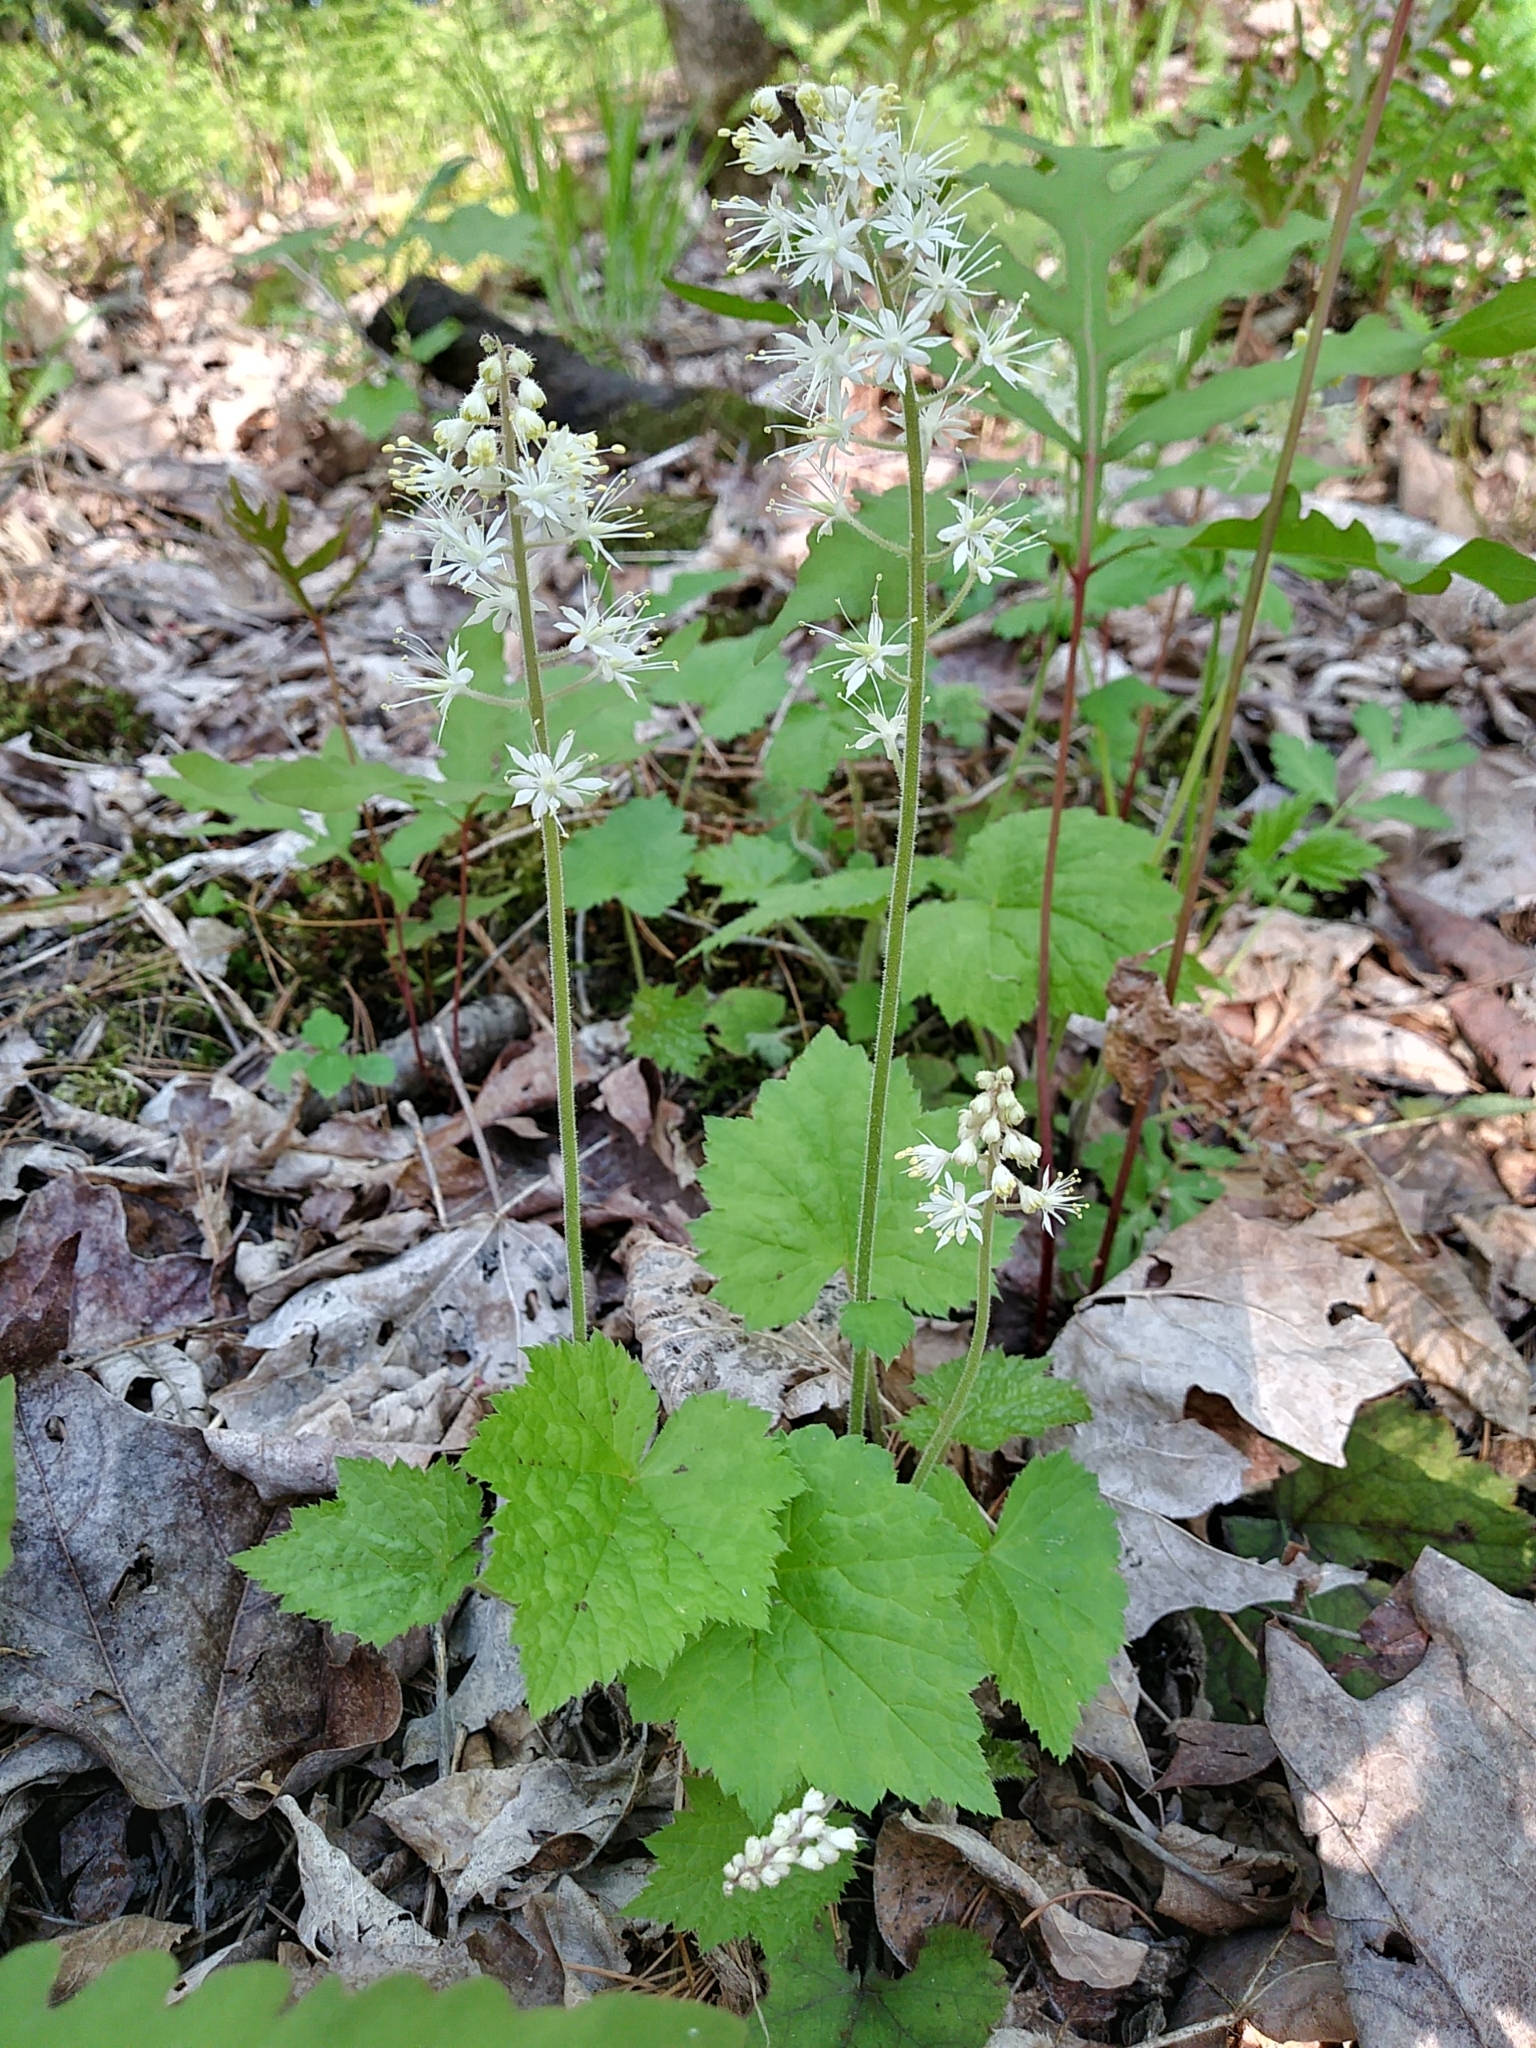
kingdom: Plantae
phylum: Tracheophyta
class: Magnoliopsida
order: Saxifragales
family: Saxifragaceae
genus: Tiarella
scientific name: Tiarella stolonifera
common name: Stoloniferous foamflower
